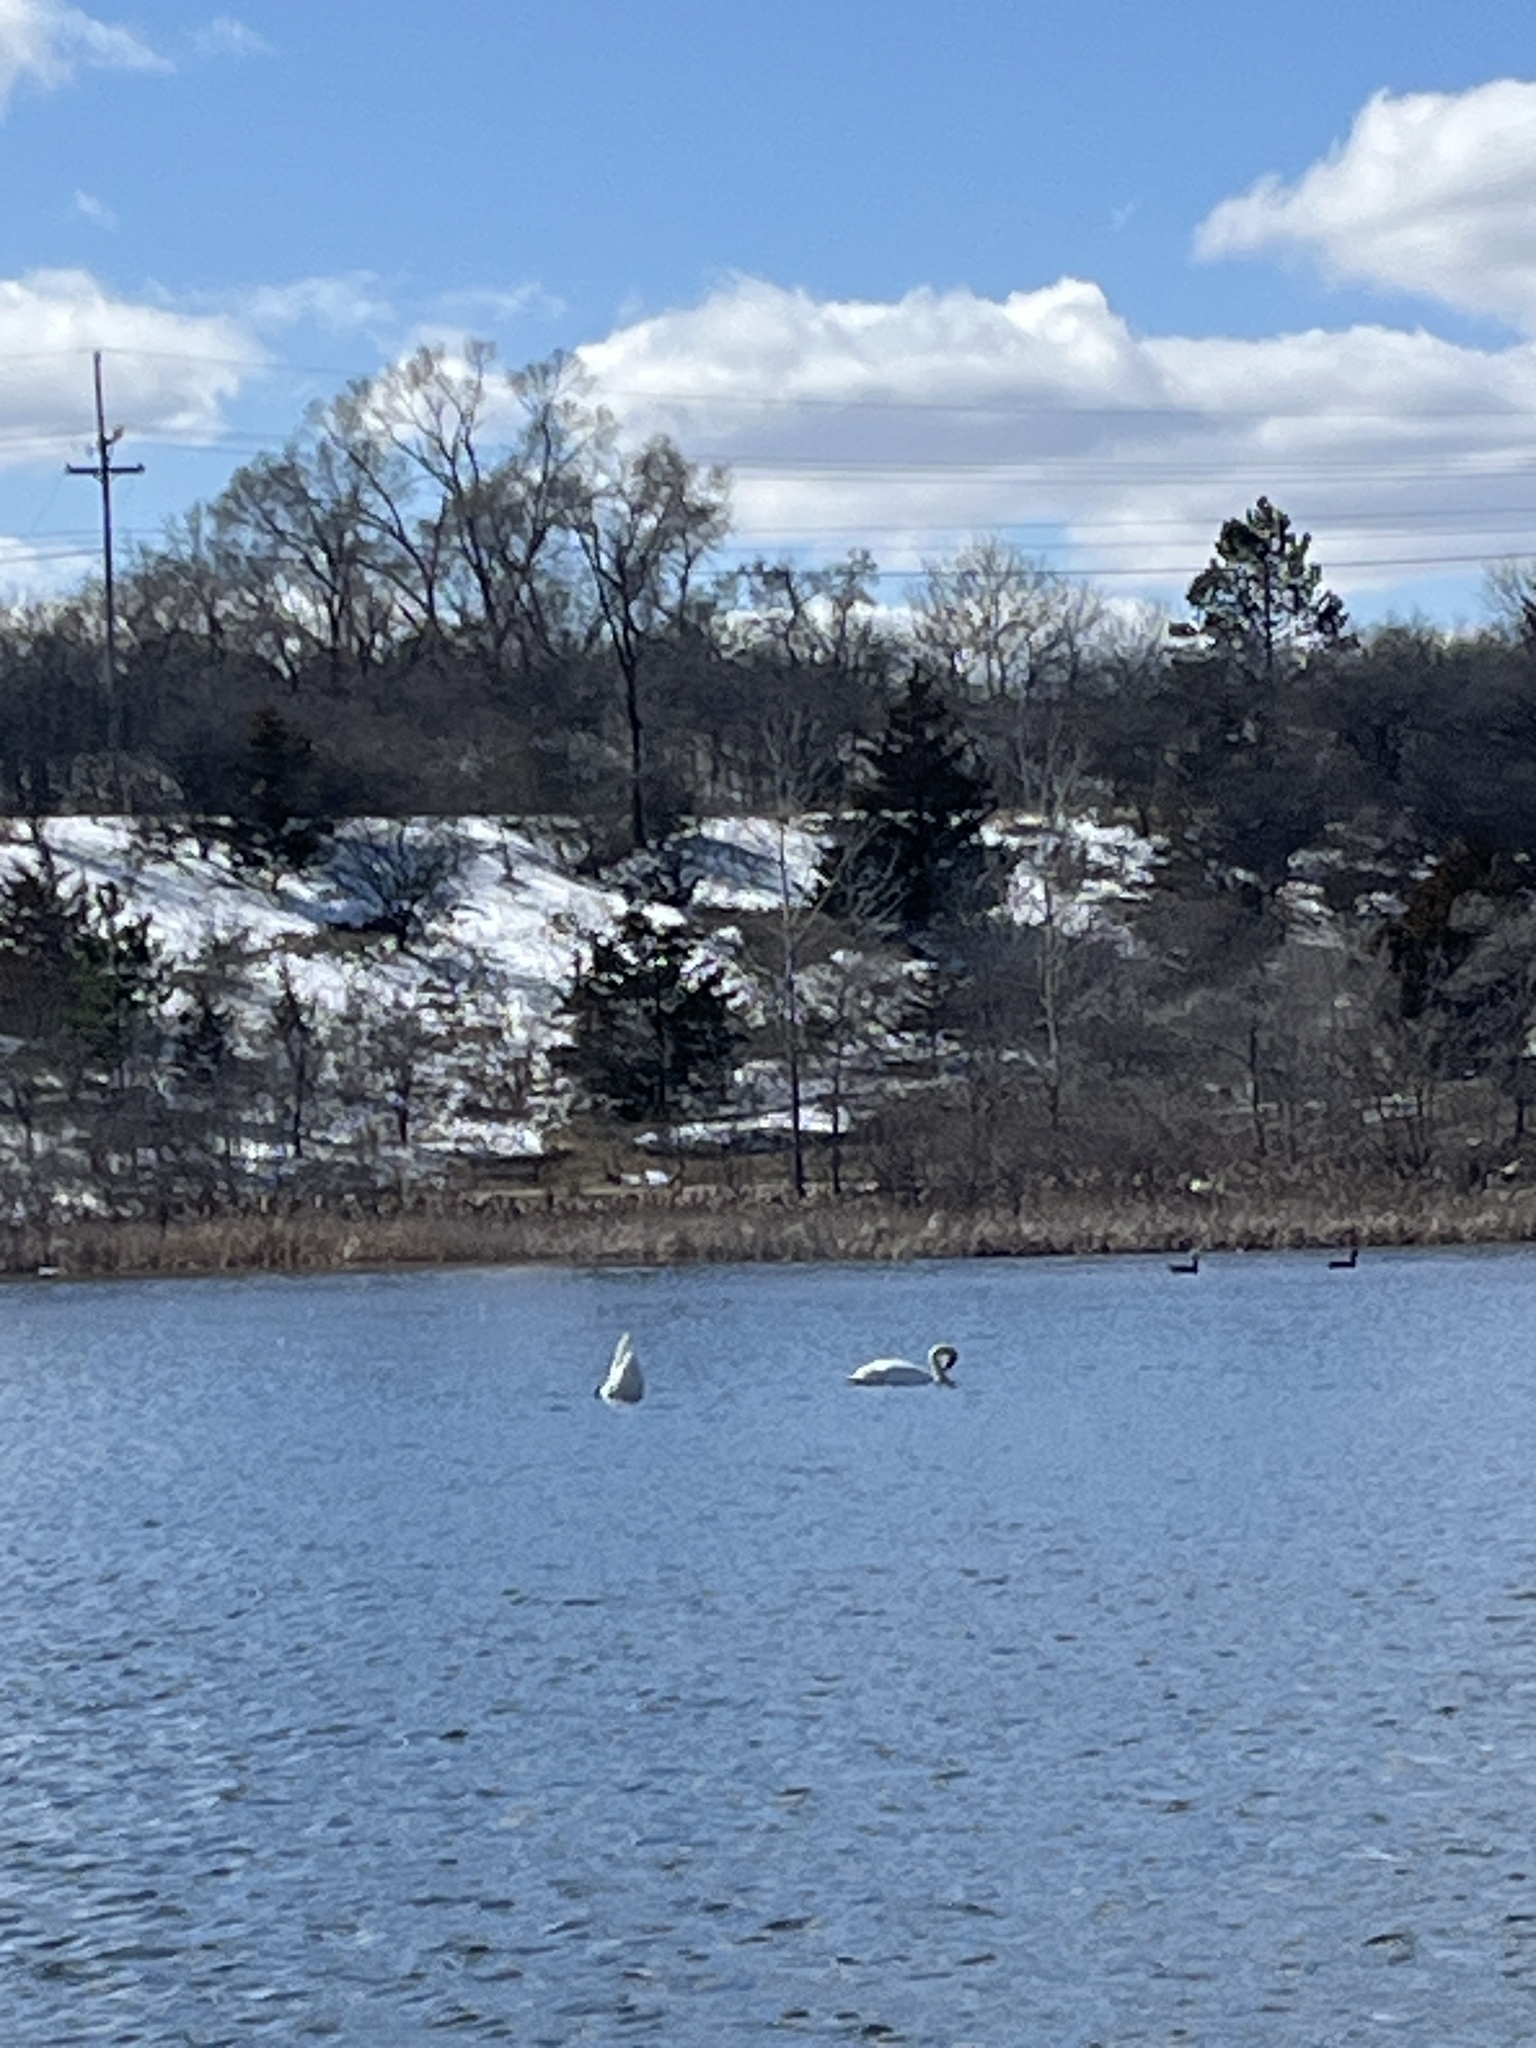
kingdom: Animalia
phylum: Chordata
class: Aves
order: Anseriformes
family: Anatidae
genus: Cygnus
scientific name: Cygnus buccinator
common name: Trumpeter swan
